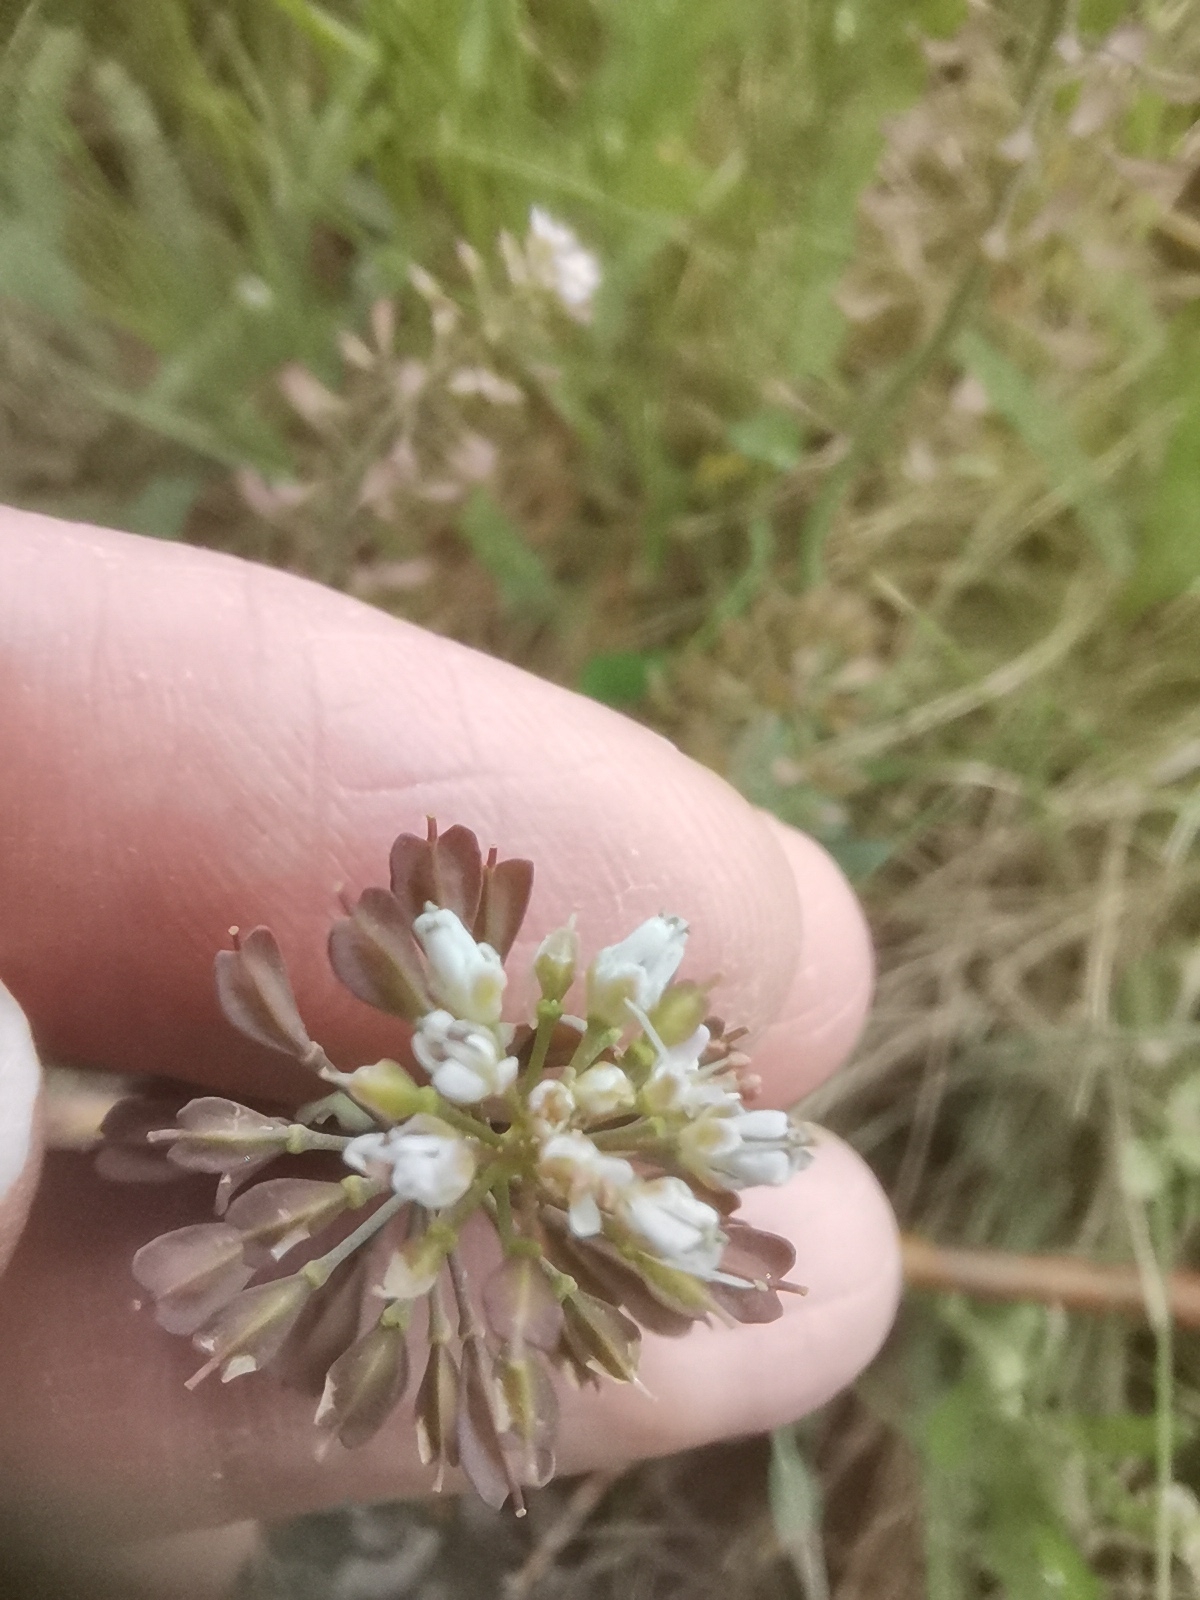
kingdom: Plantae
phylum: Tracheophyta
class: Magnoliopsida
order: Brassicales
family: Brassicaceae
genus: Noccaea
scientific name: Noccaea caerulescens
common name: Alpine pennycress
